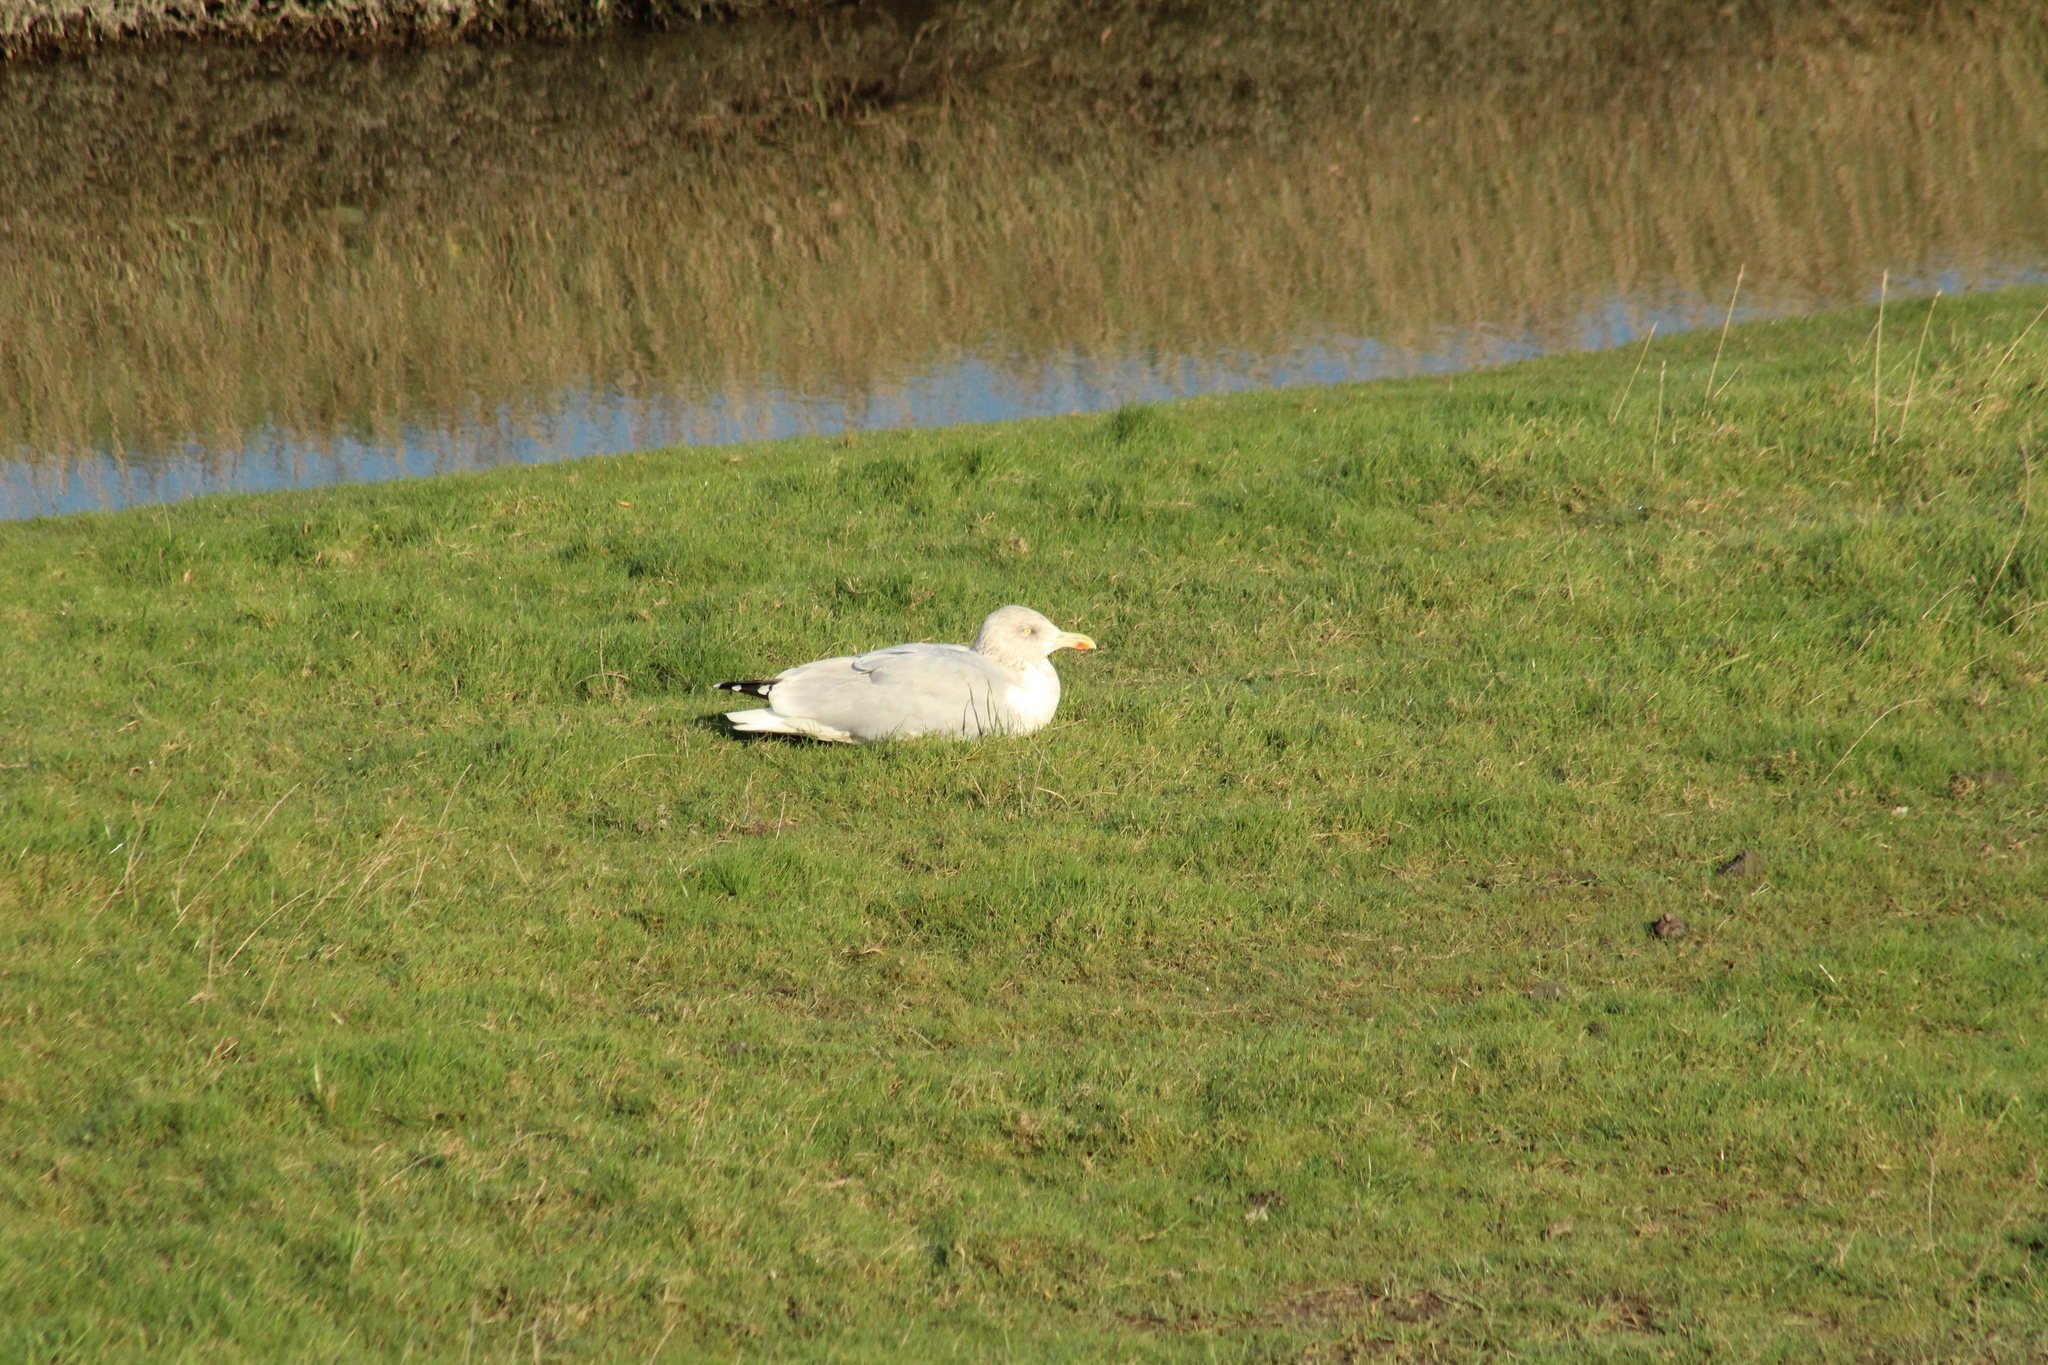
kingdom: Animalia
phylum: Chordata
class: Aves
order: Charadriiformes
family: Laridae
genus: Larus
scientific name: Larus argentatus
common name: Herring gull
